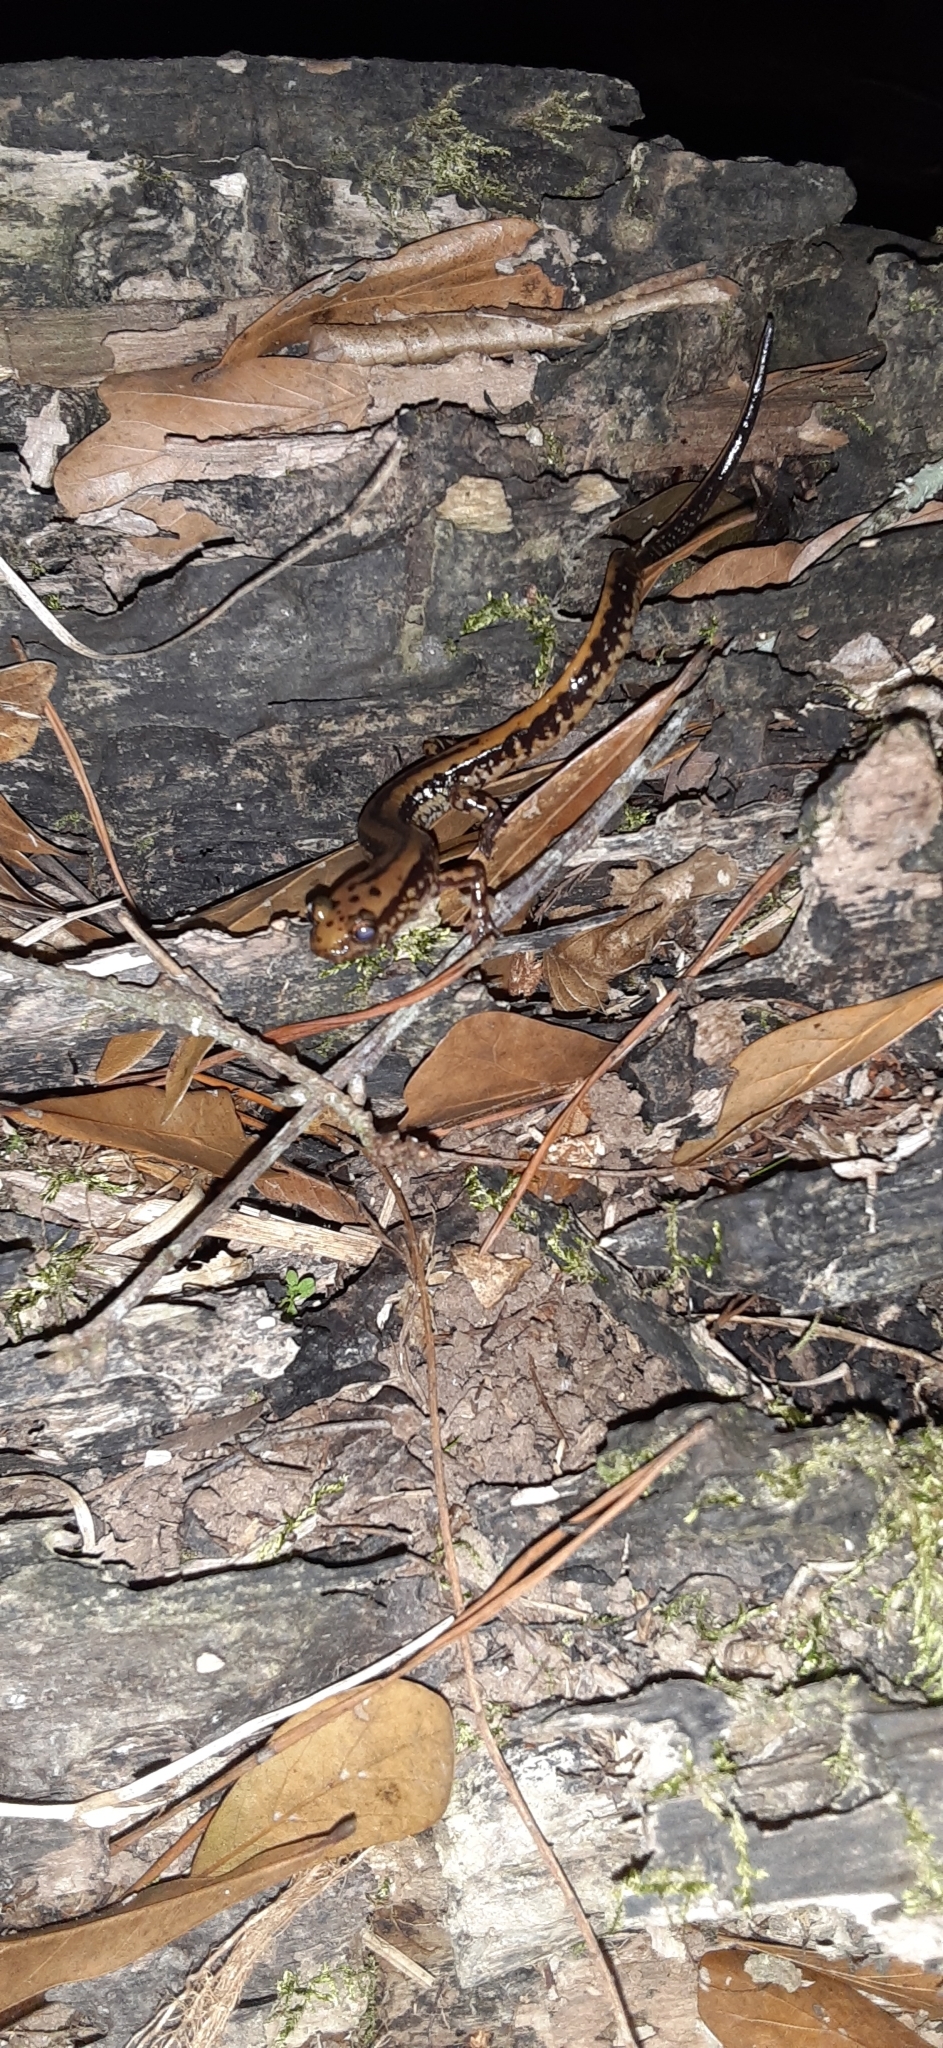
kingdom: Animalia
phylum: Chordata
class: Amphibia
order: Caudata
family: Plethodontidae
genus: Eurycea
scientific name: Eurycea guttolineata
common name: Three-lined salamander
